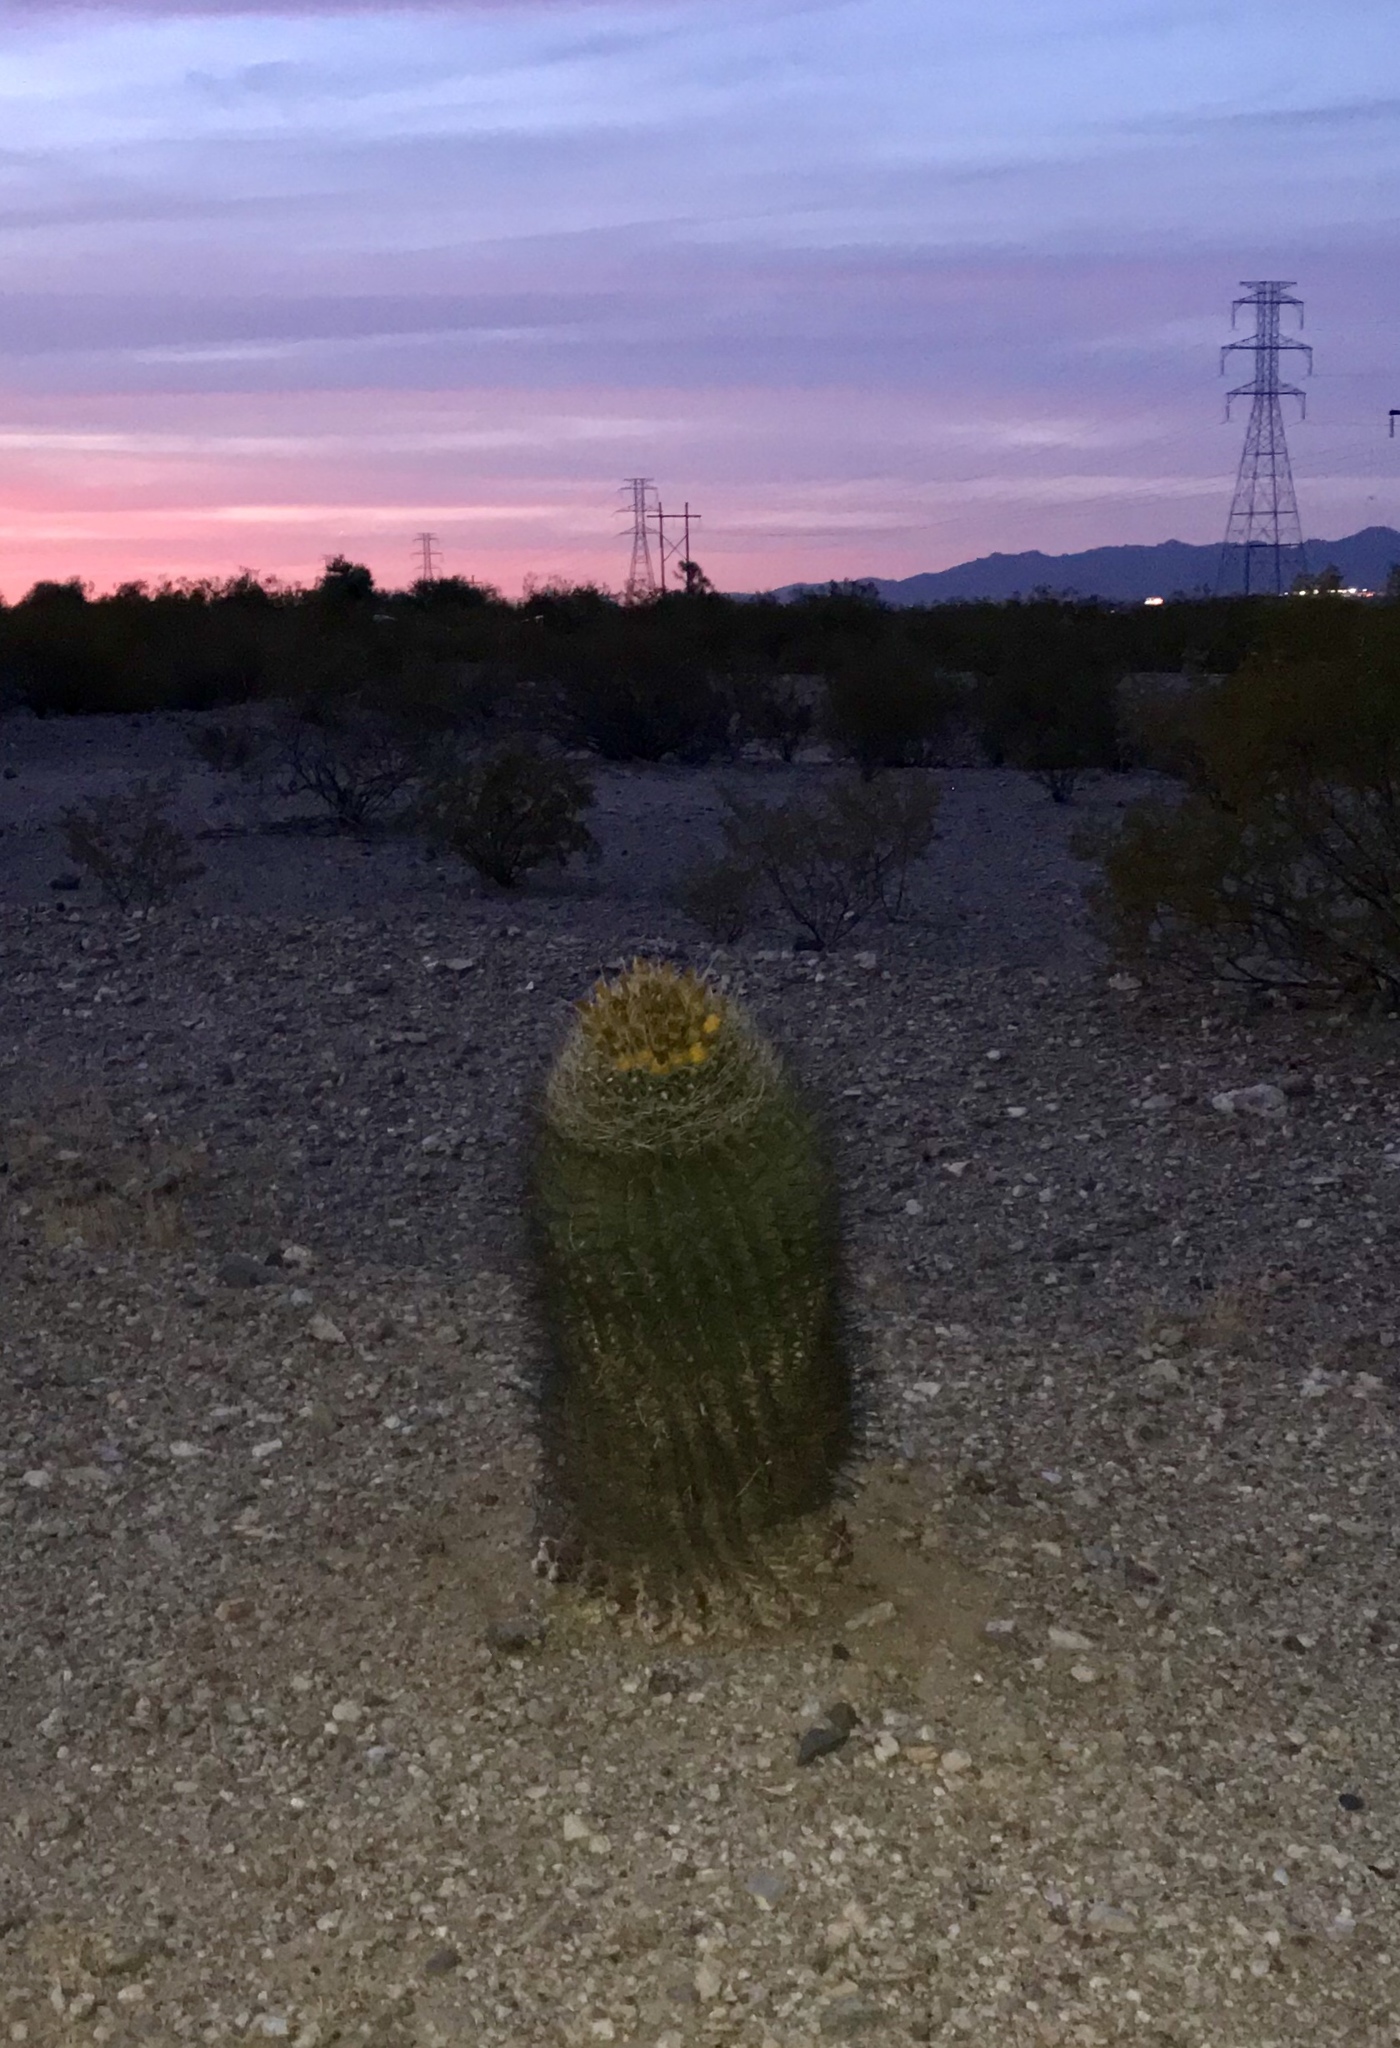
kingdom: Plantae
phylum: Tracheophyta
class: Magnoliopsida
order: Caryophyllales
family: Cactaceae
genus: Ferocactus
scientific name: Ferocactus wislizeni
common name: Candy barrel cactus
